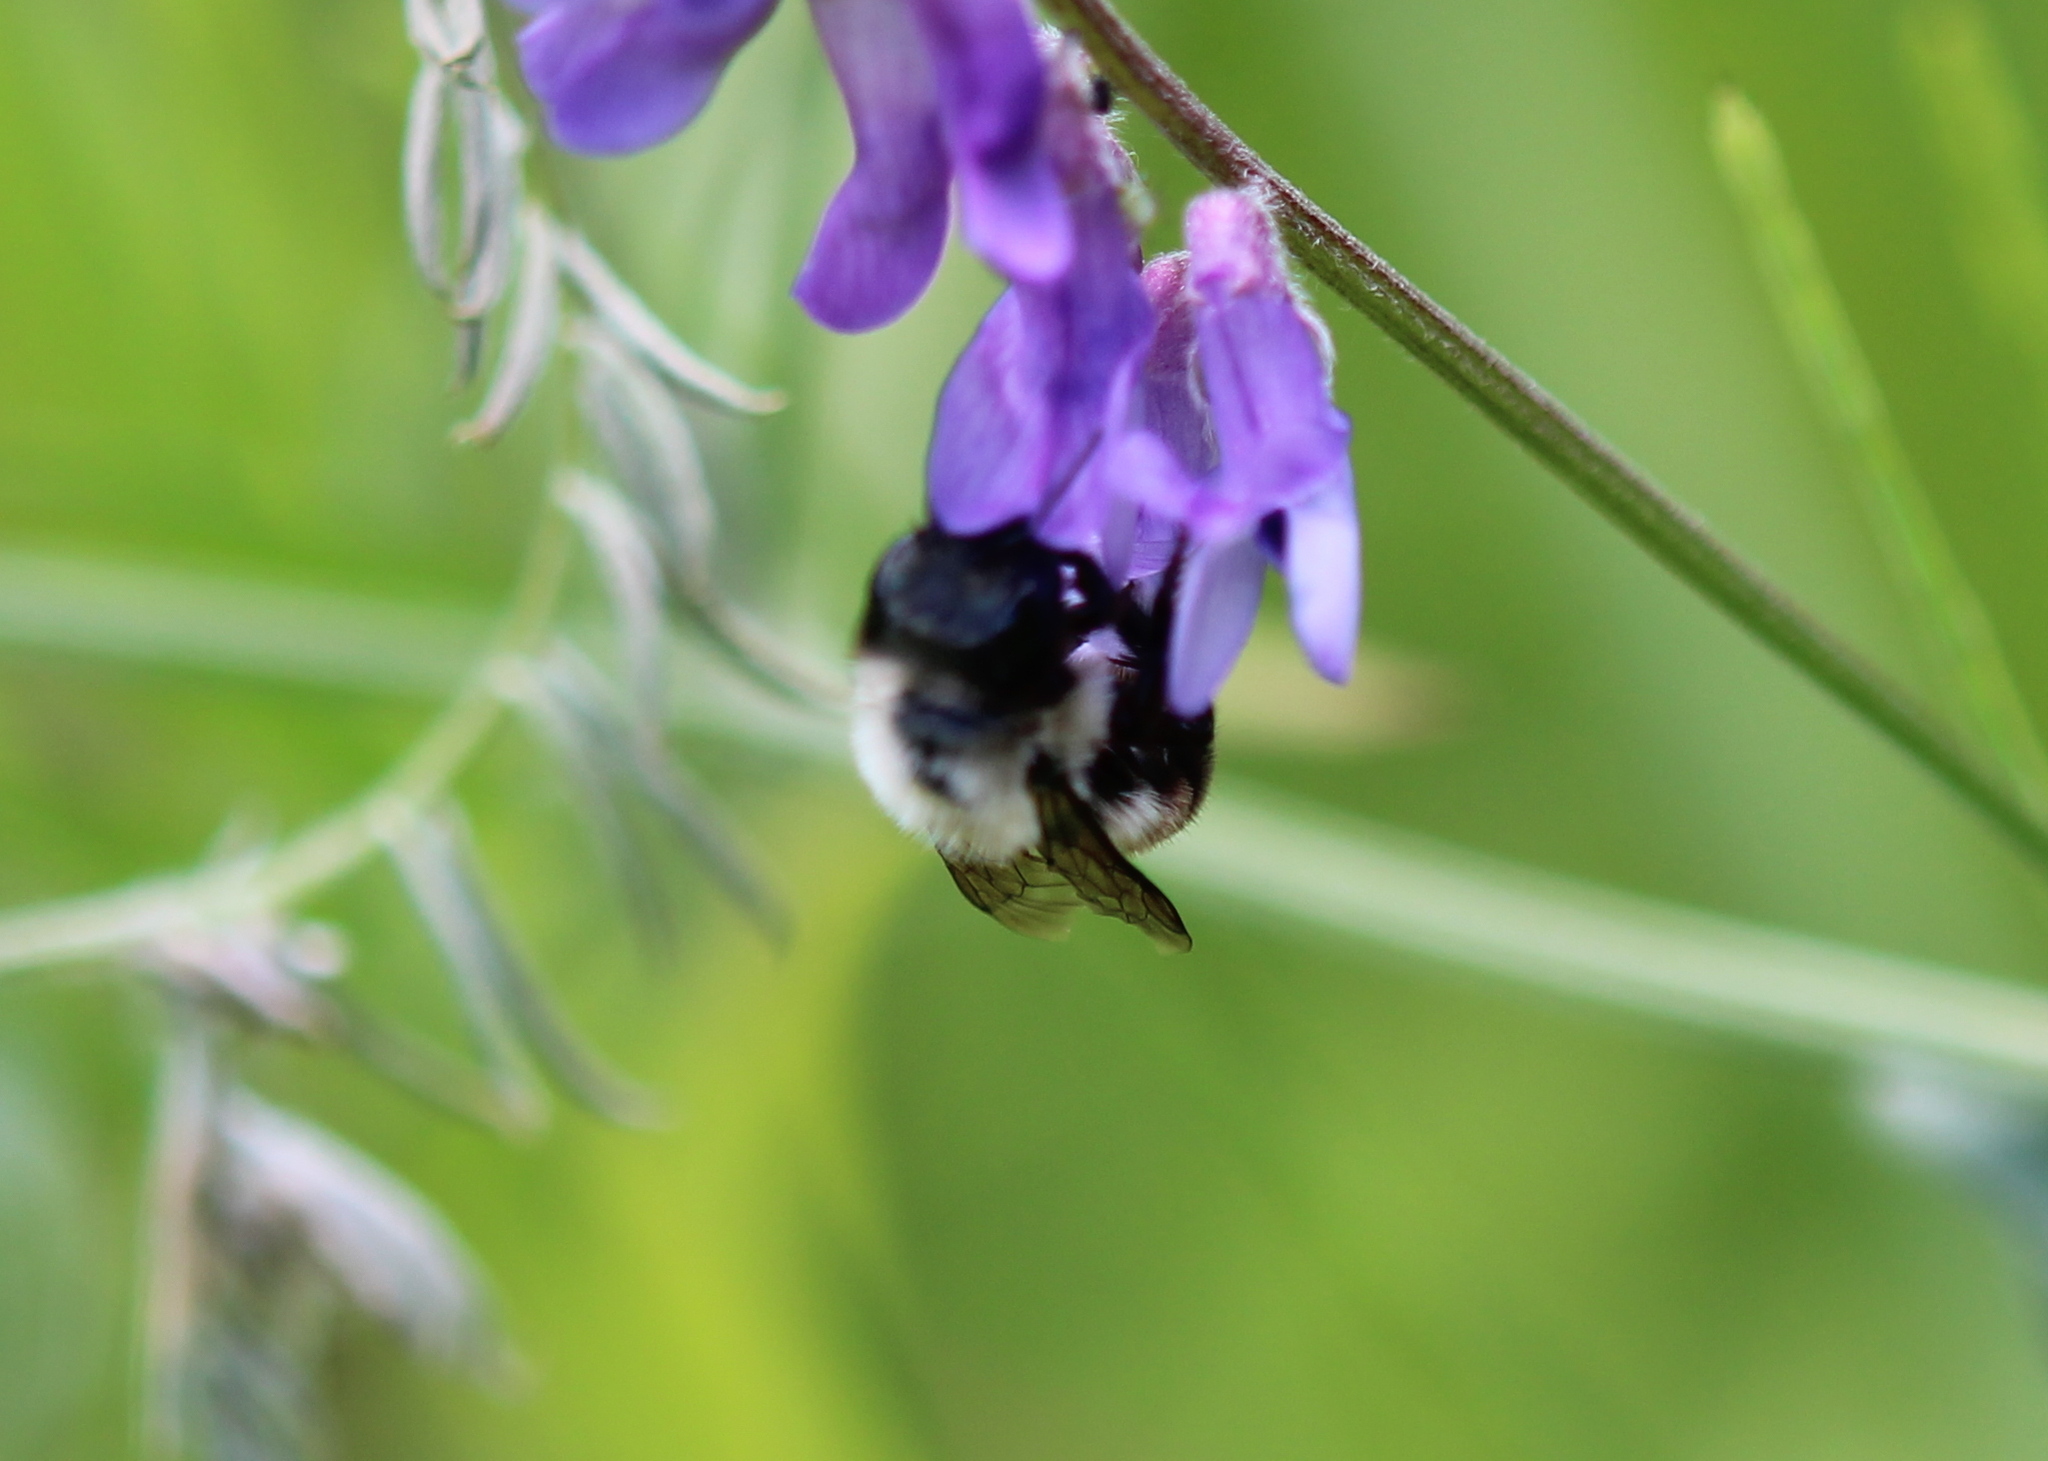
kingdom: Animalia
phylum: Arthropoda
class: Insecta
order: Hymenoptera
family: Megachilidae
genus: Osmia
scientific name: Osmia bucephala
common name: Bufflehead mason bee
